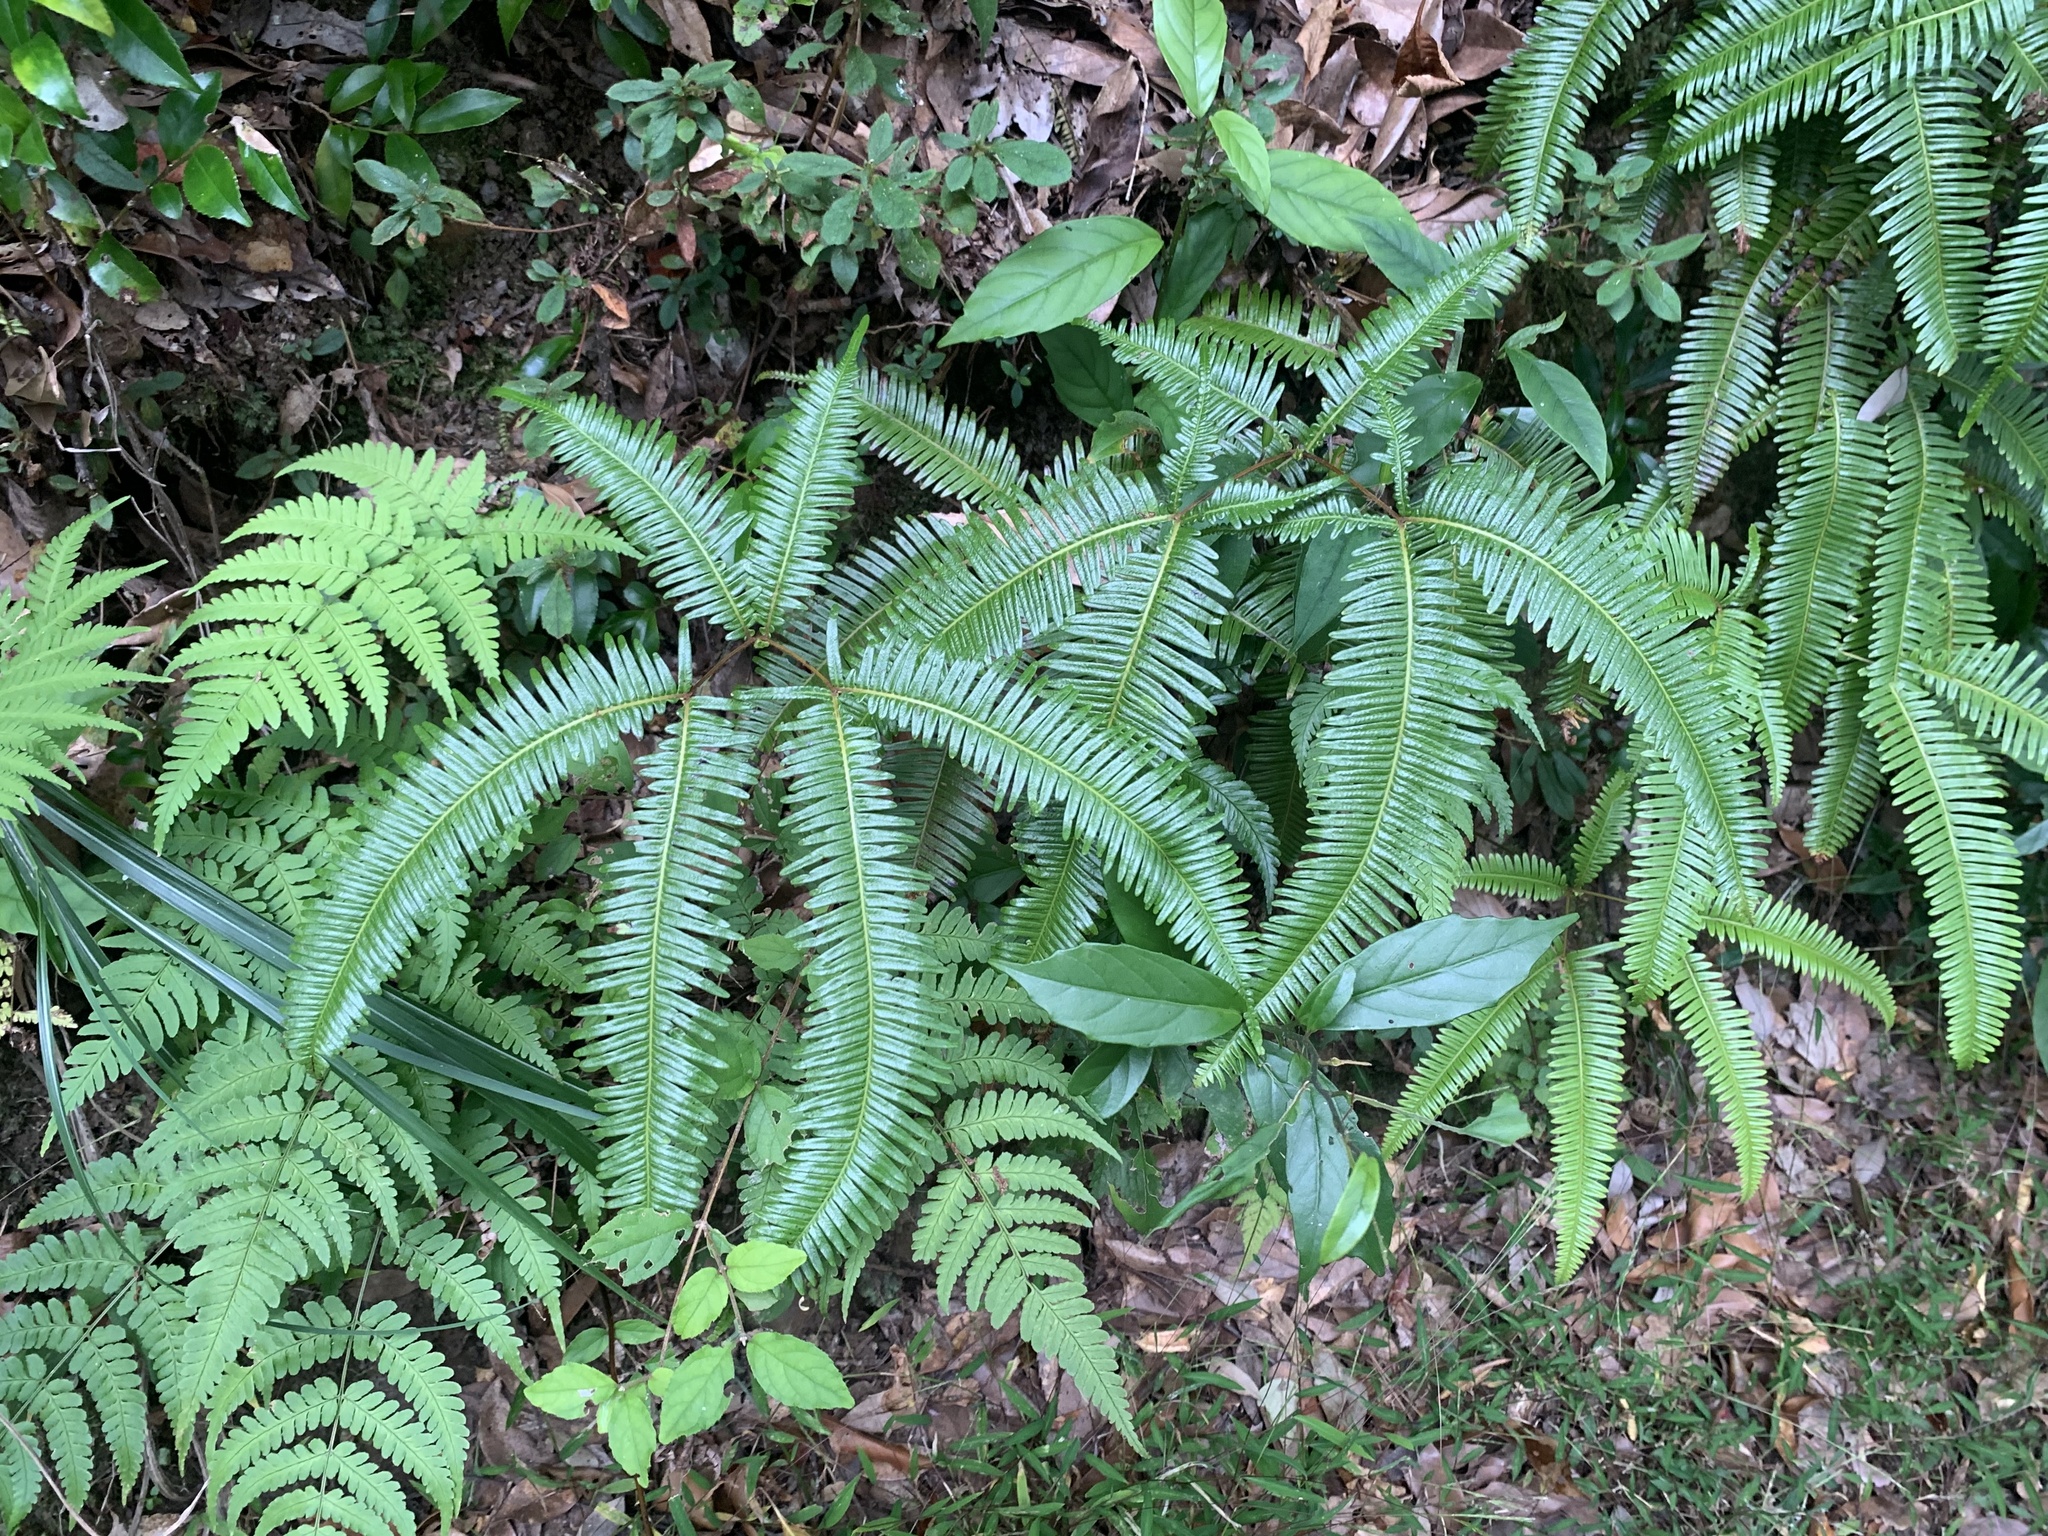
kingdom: Plantae
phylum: Tracheophyta
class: Polypodiopsida
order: Gleicheniales
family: Gleicheniaceae
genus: Dicranopteris
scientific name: Dicranopteris linearis
